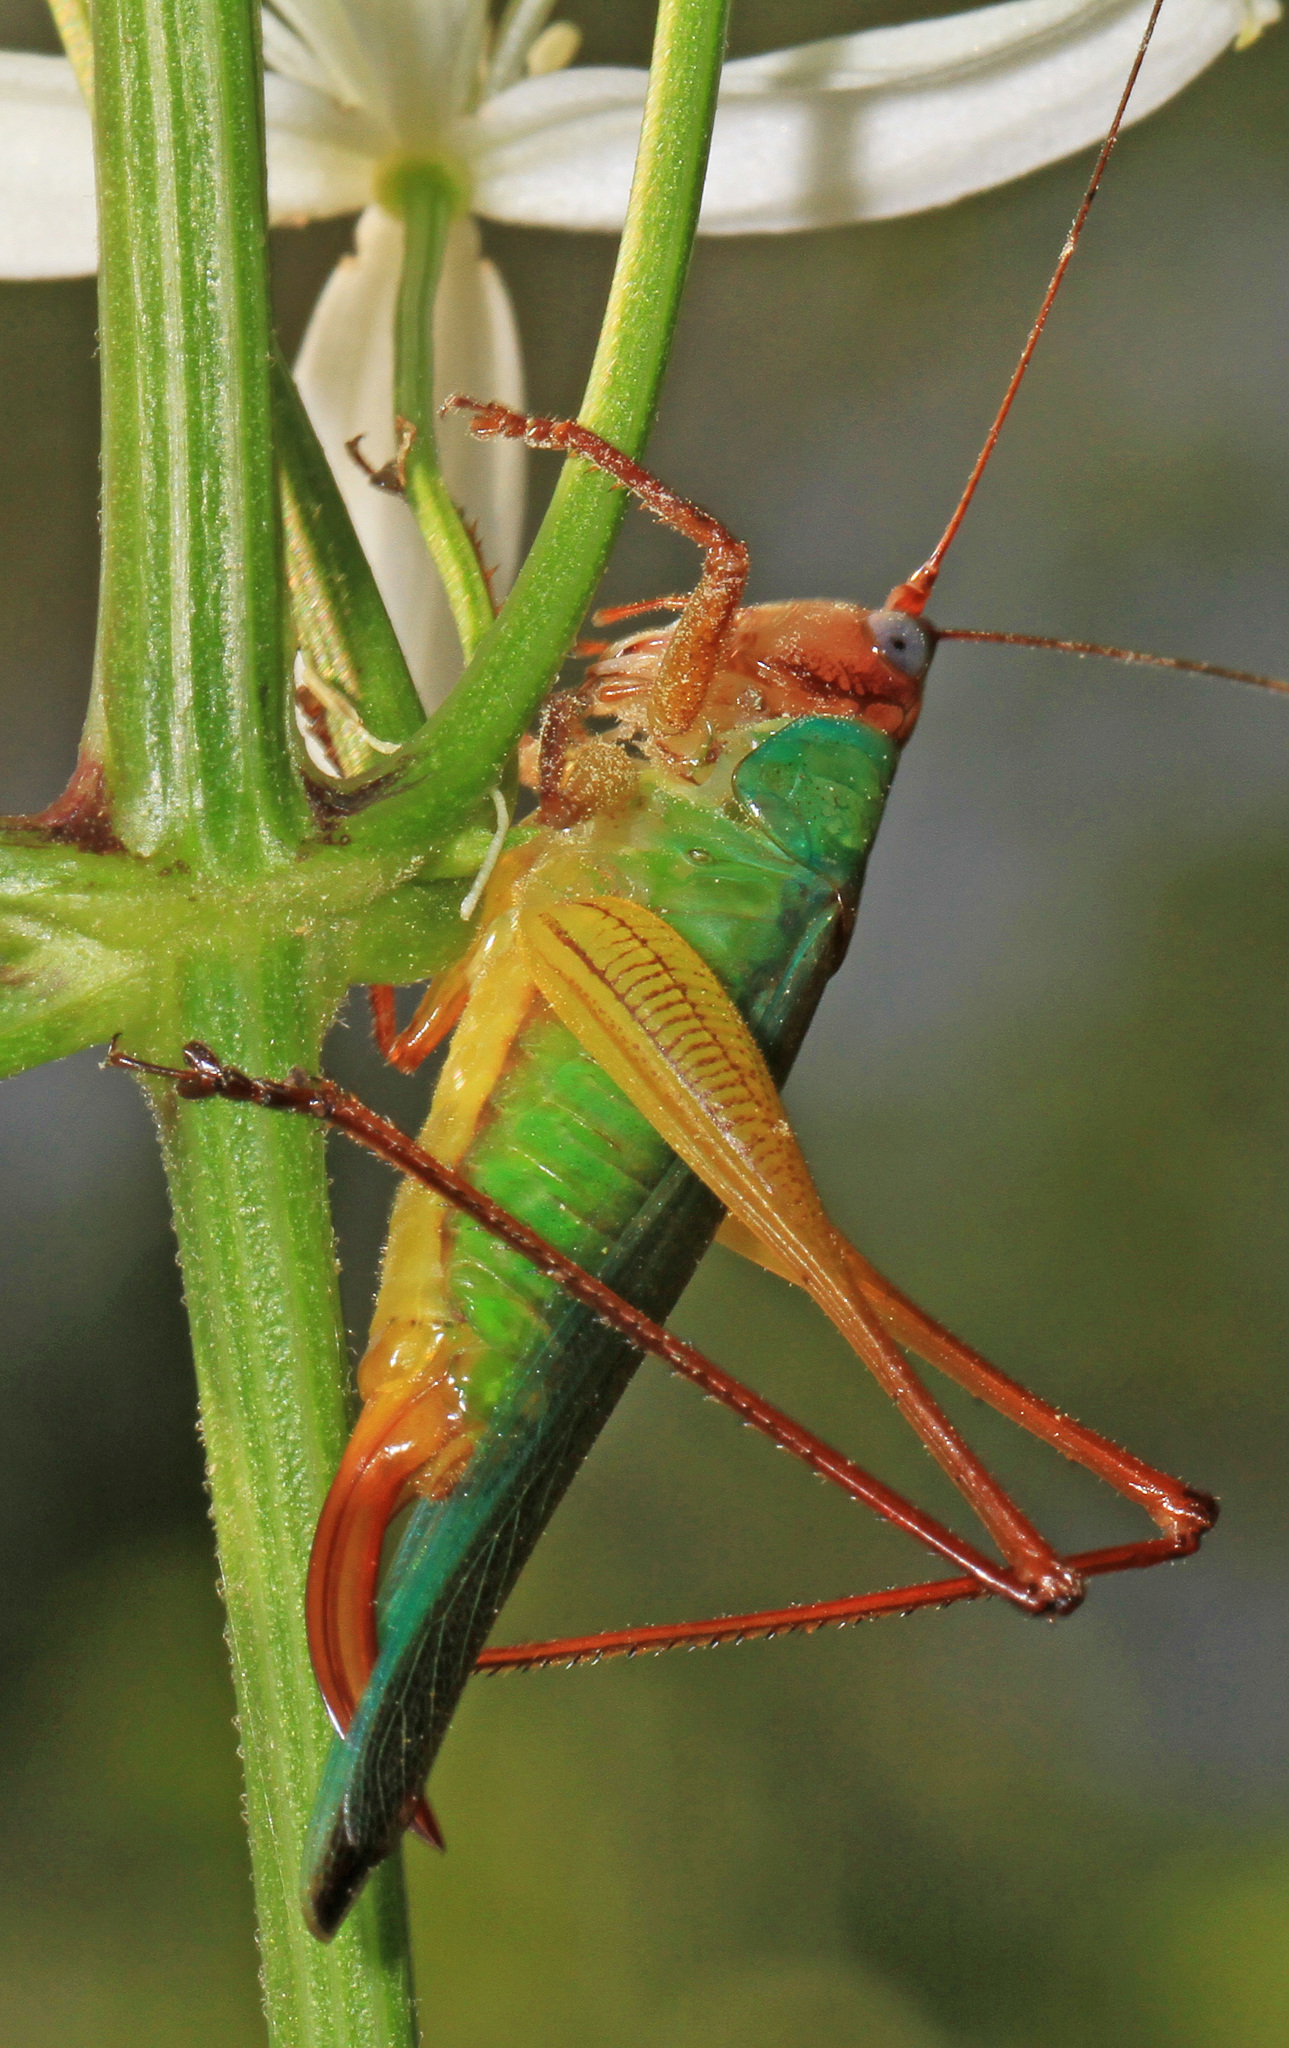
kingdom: Animalia
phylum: Arthropoda
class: Insecta
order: Orthoptera
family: Tettigoniidae
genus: Orchelimum
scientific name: Orchelimum pulchellum
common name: Handsome meadow katydid
